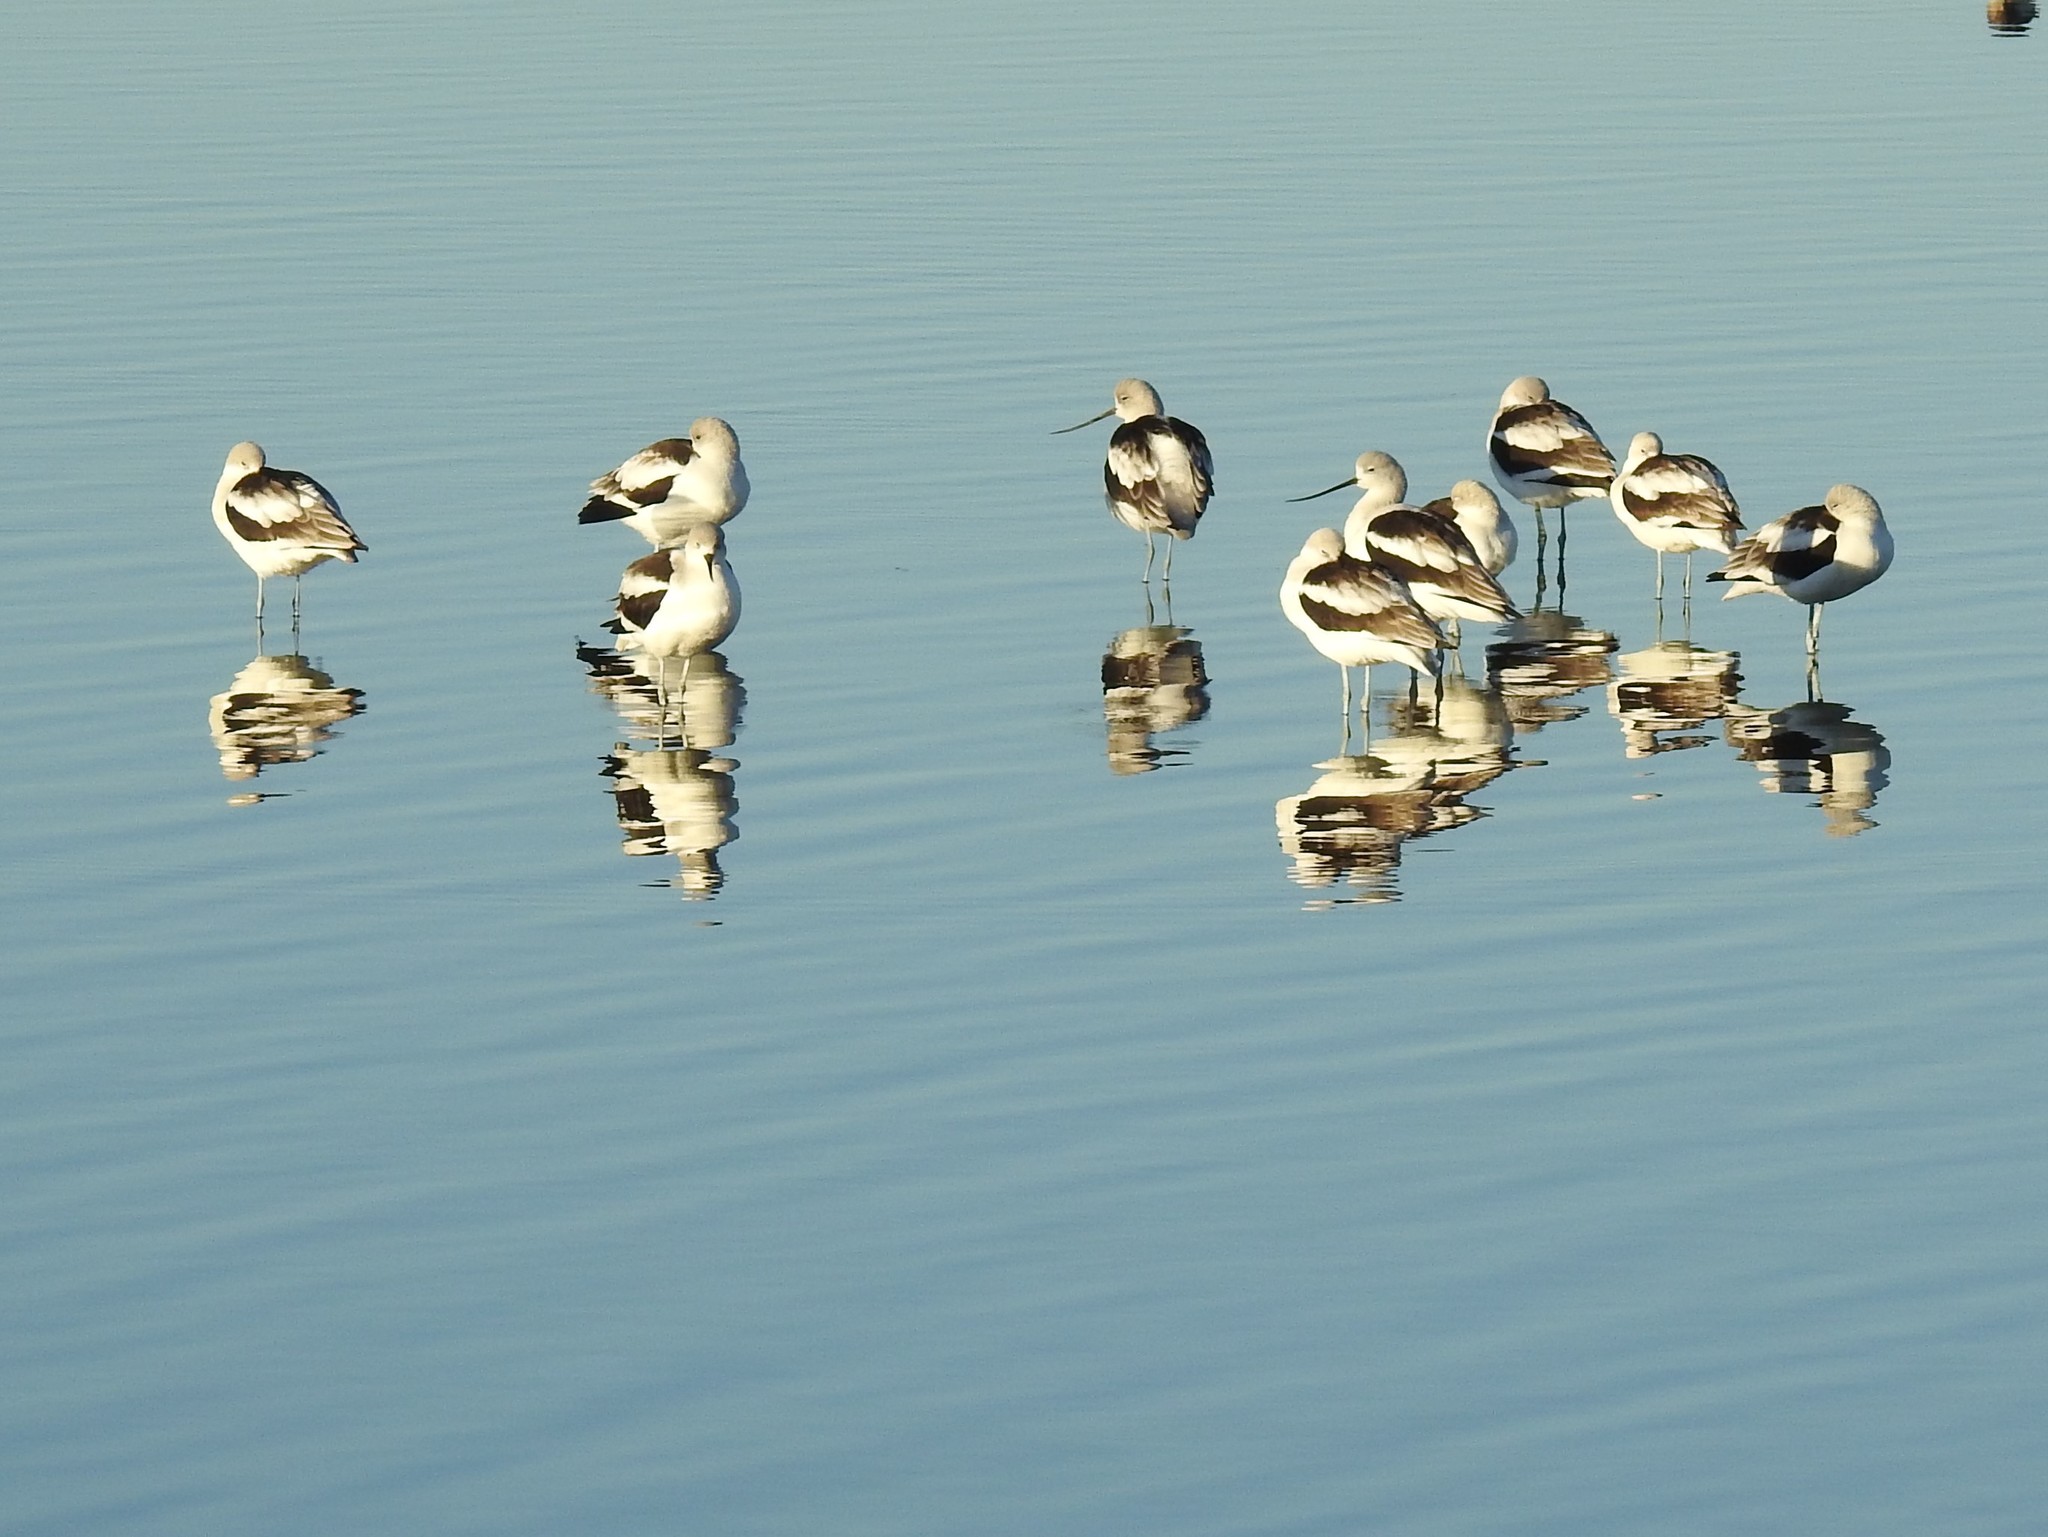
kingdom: Animalia
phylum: Chordata
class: Aves
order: Charadriiformes
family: Recurvirostridae
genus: Recurvirostra
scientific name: Recurvirostra americana
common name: American avocet
